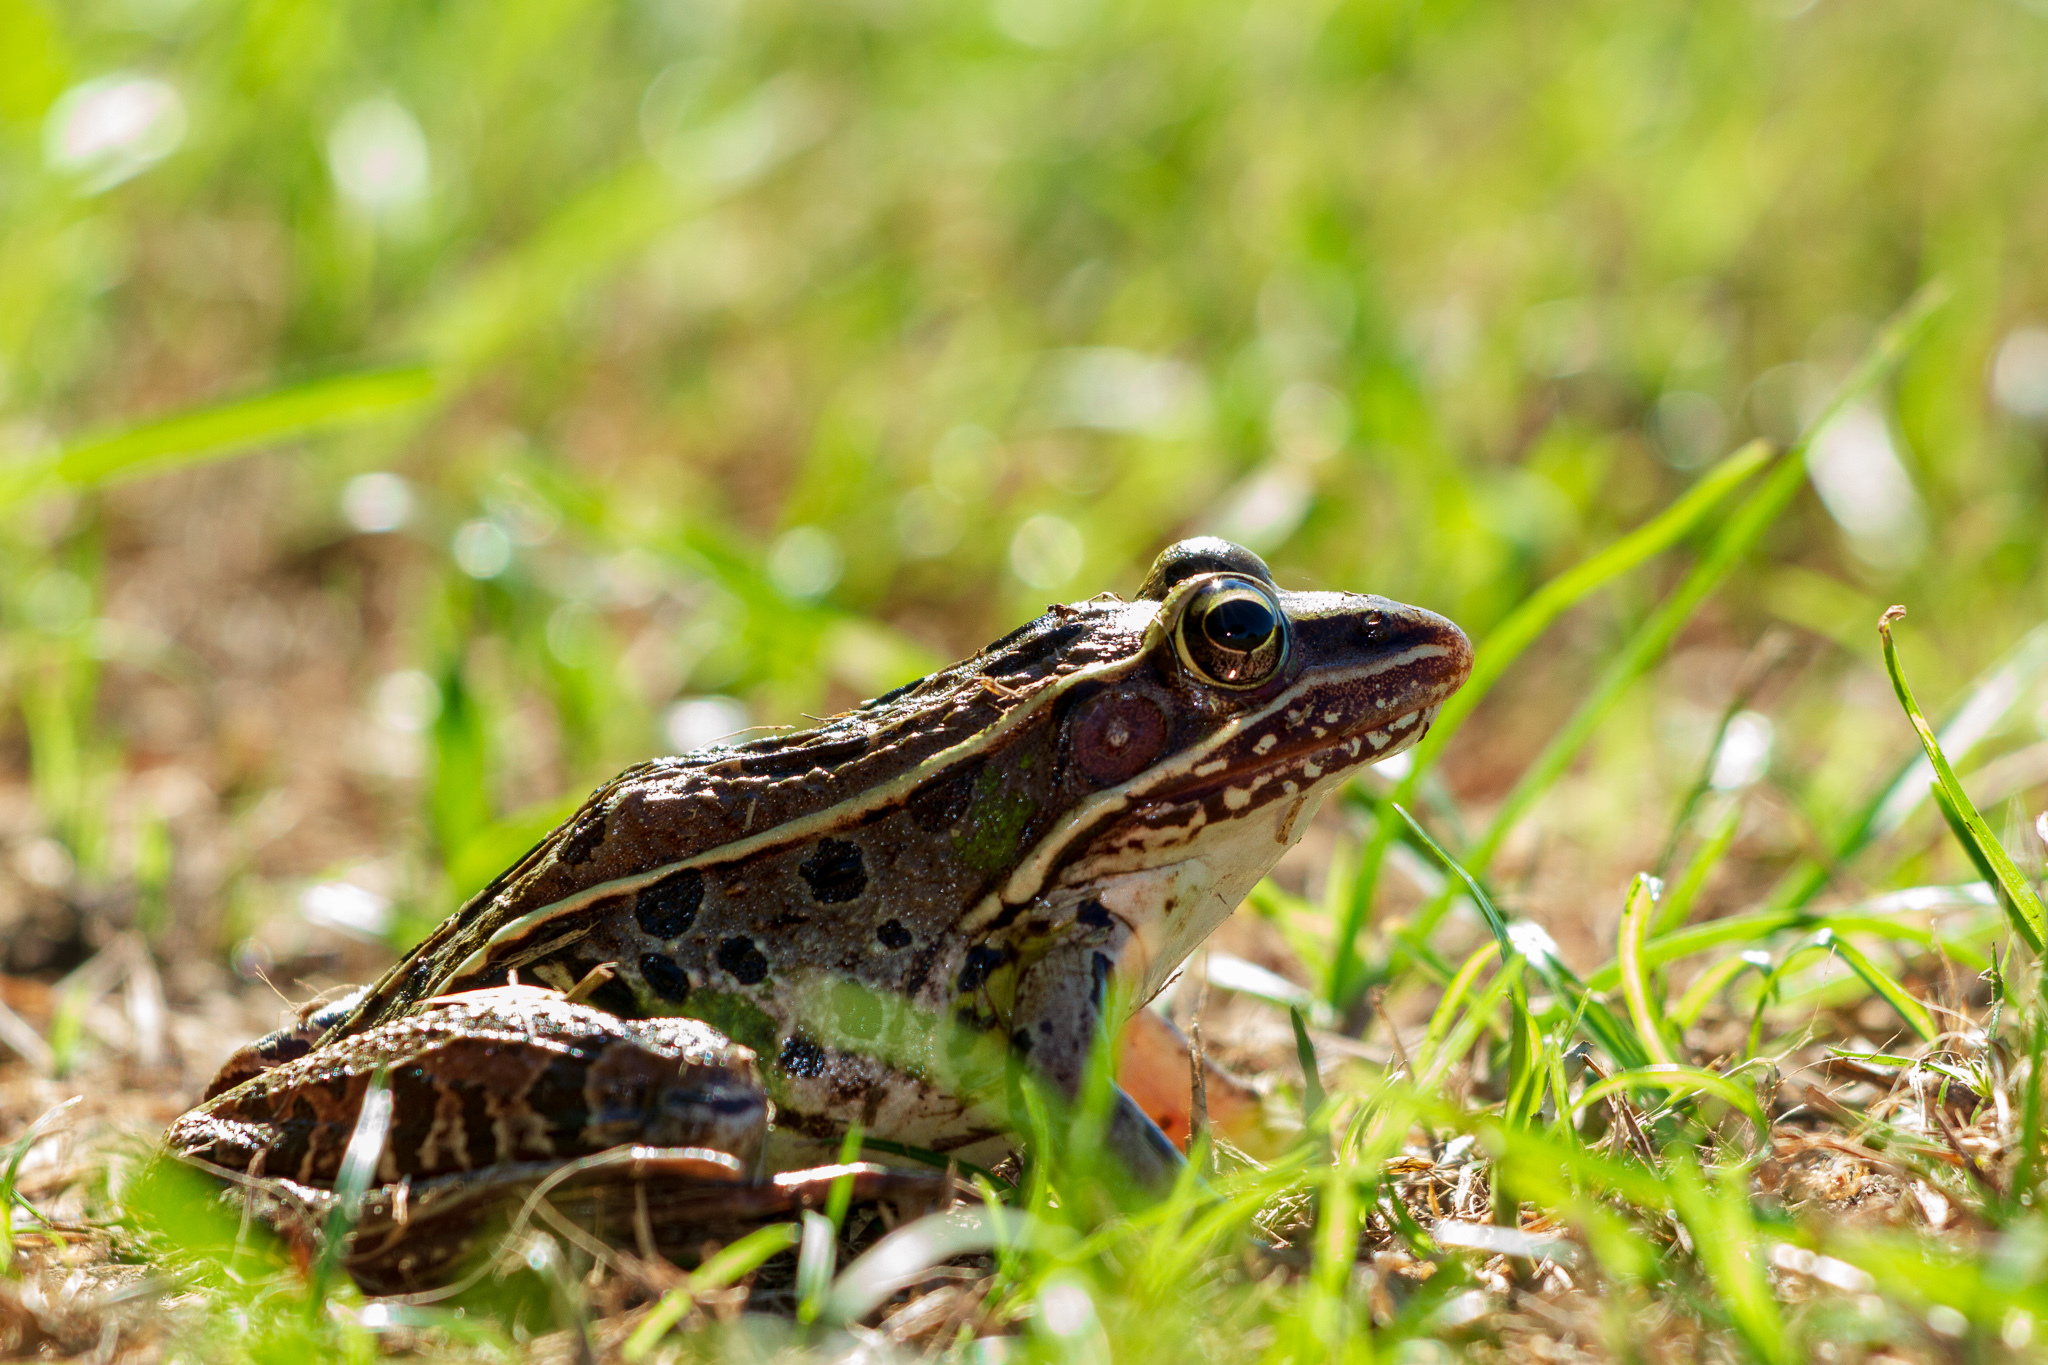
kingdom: Animalia
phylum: Chordata
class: Amphibia
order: Anura
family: Ranidae
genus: Lithobates
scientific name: Lithobates sphenocephalus
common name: Southern leopard frog
